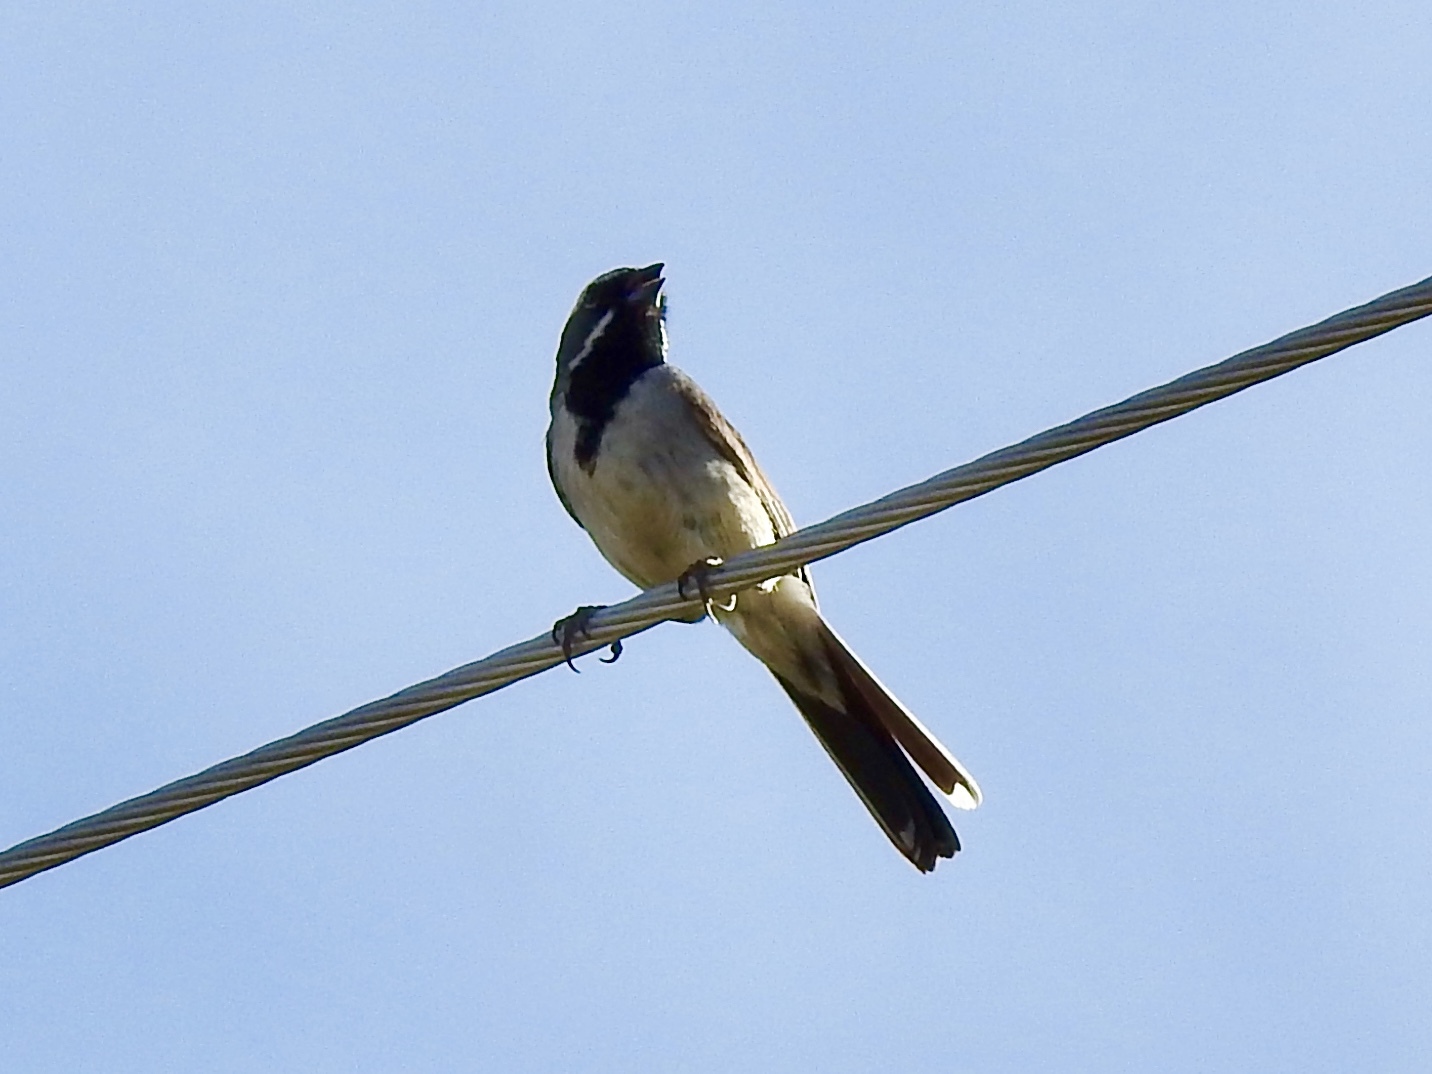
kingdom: Animalia
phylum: Chordata
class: Aves
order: Passeriformes
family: Passerellidae
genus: Amphispiza
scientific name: Amphispiza bilineata
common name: Black-throated sparrow
